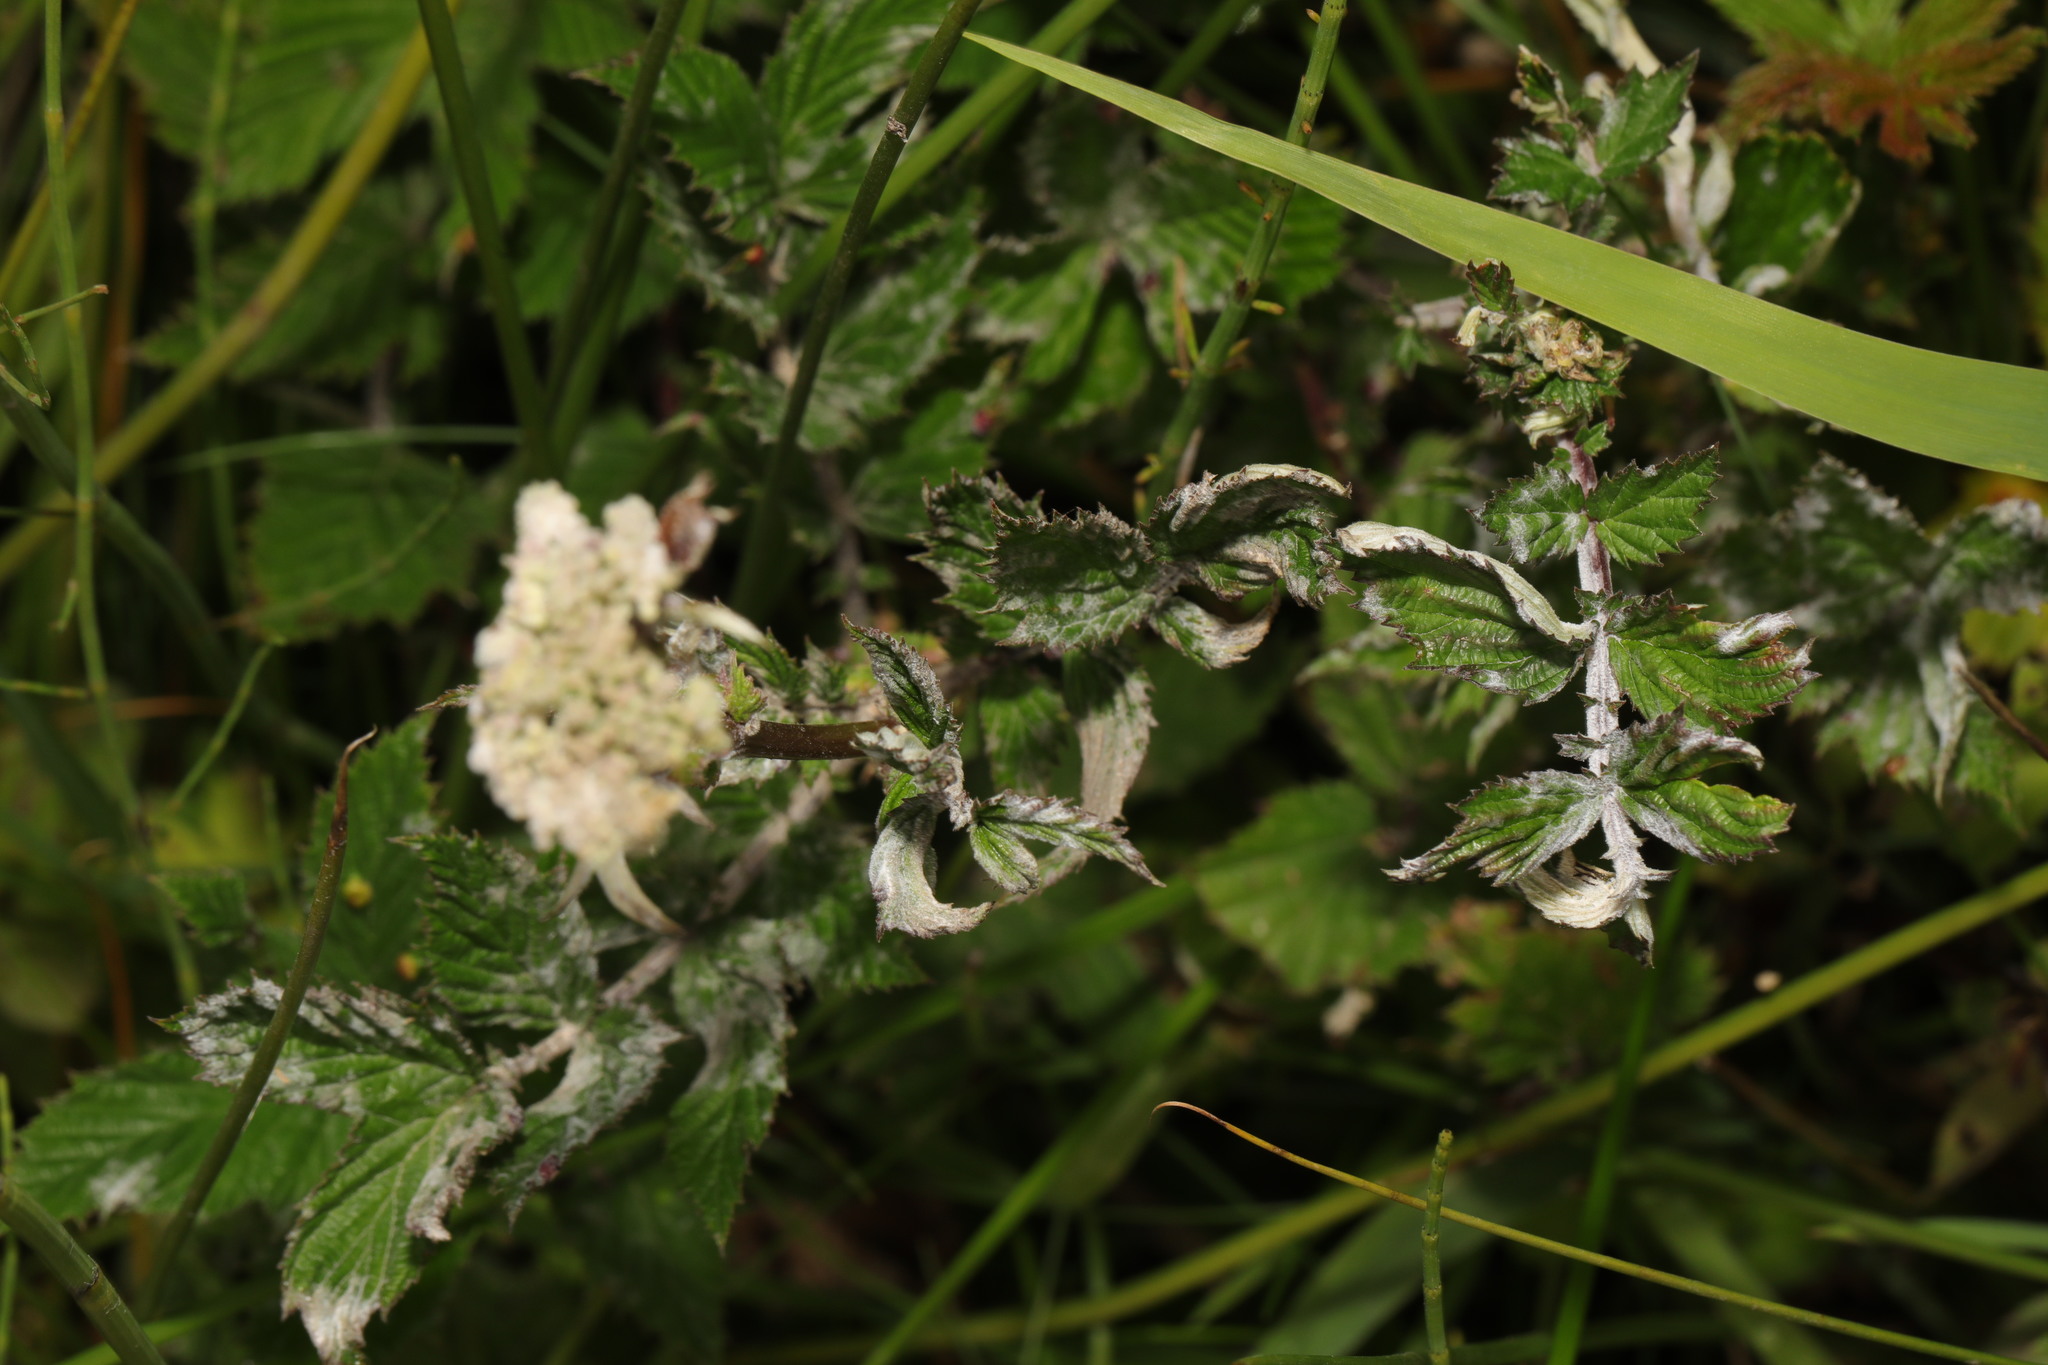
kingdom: Fungi
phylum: Ascomycota
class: Leotiomycetes
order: Helotiales
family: Erysiphaceae
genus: Podosphaera
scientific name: Podosphaera filipendulae
